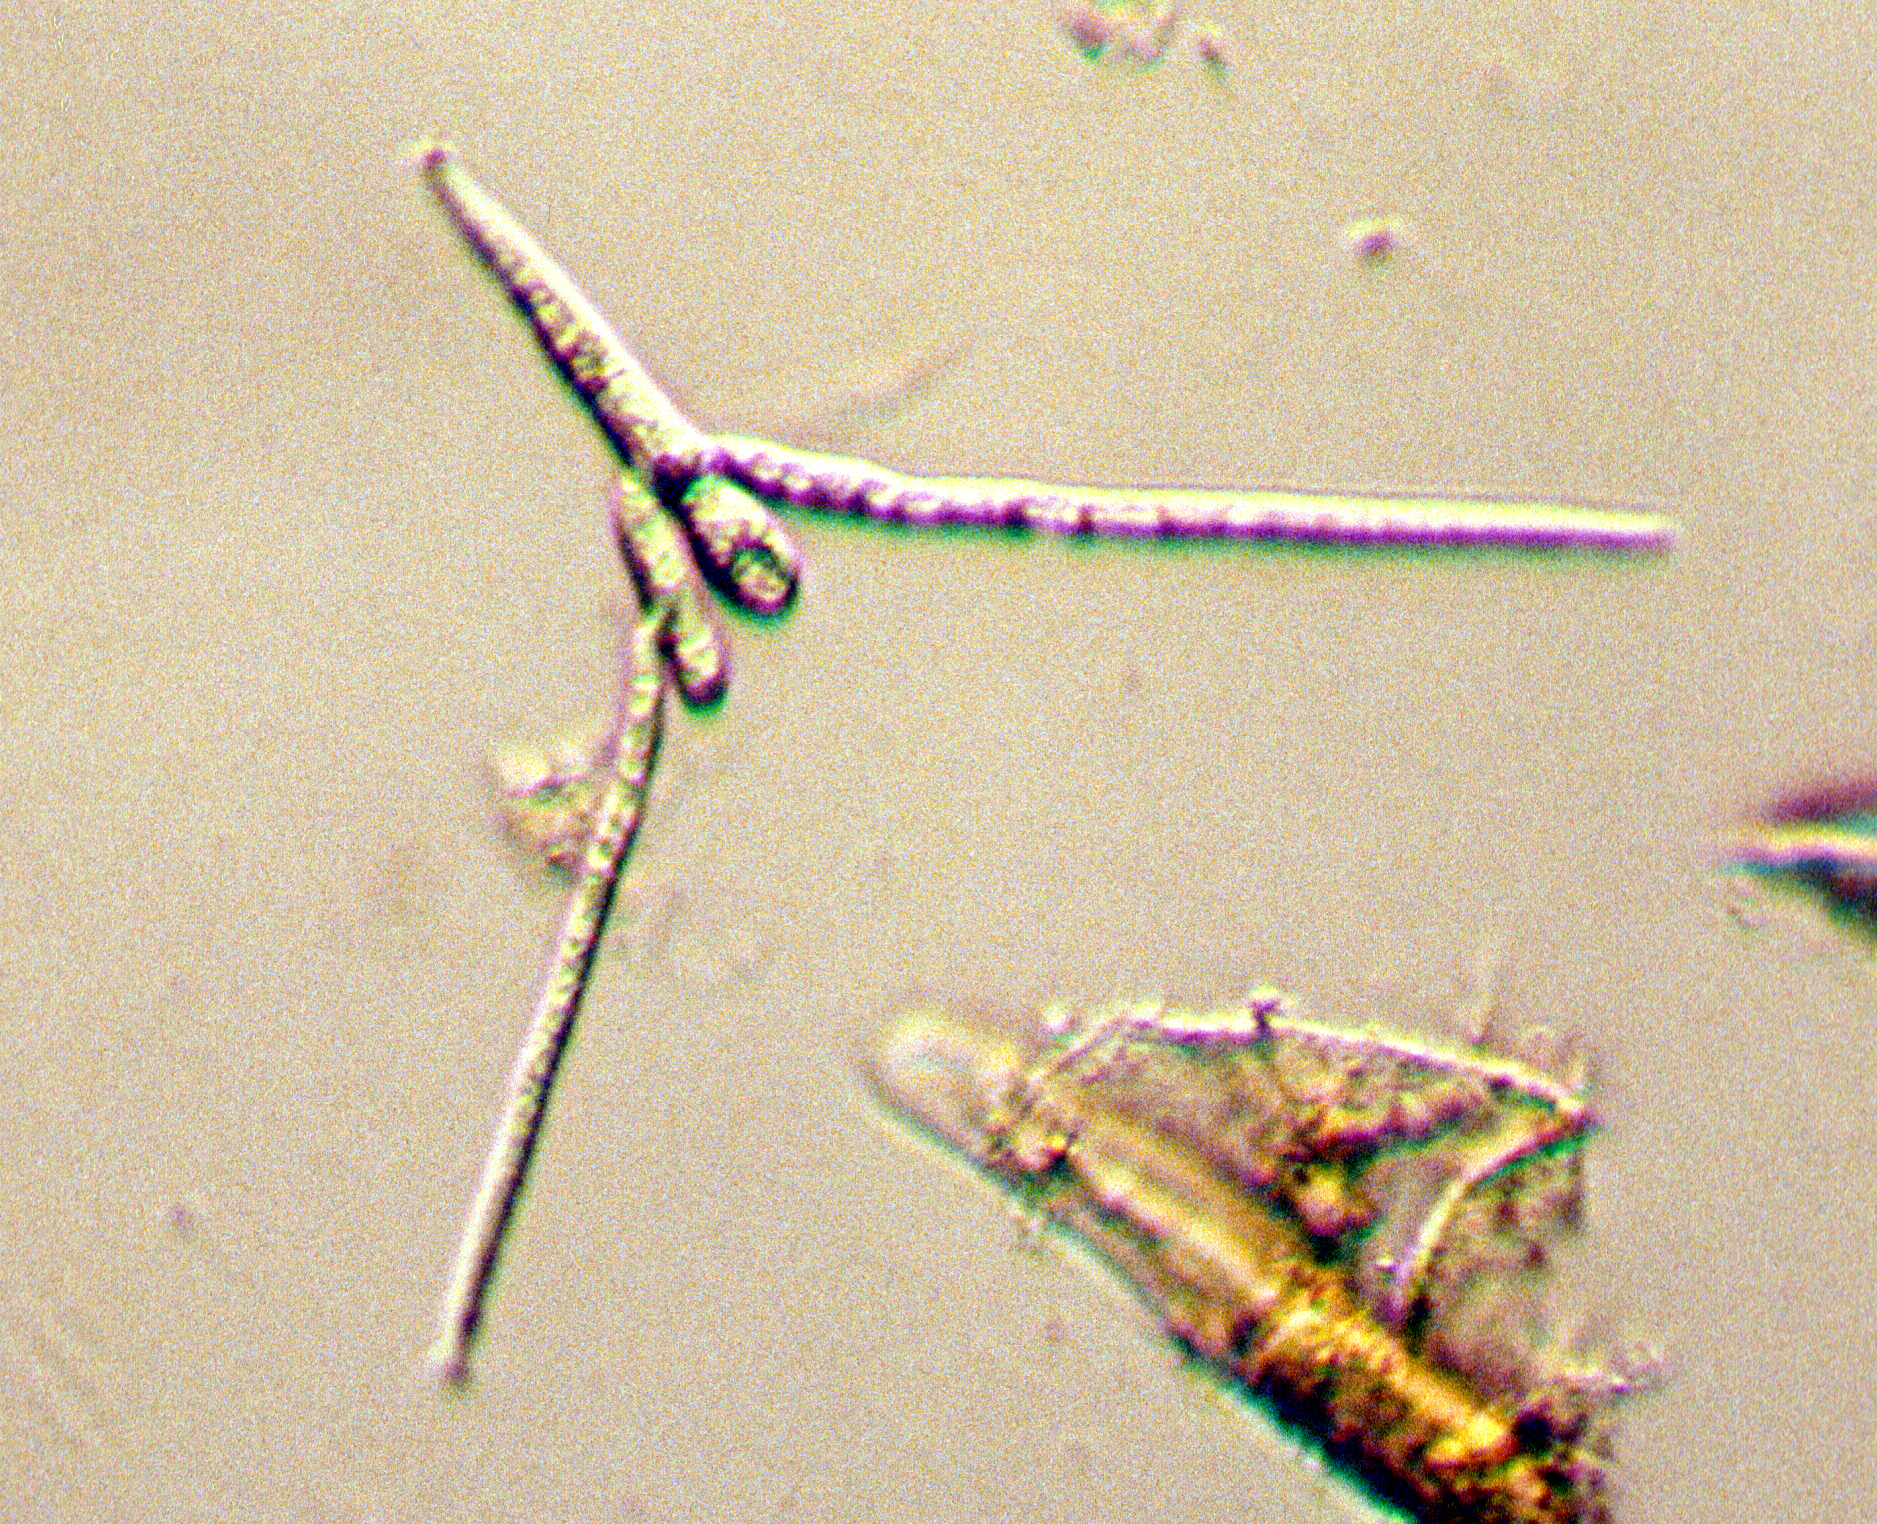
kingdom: Fungi
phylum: Ascomycota
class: Leotiomycetes
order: Helotiales
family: Helotiaceae
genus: Tetracladium
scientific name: Tetracladium marchalianum
